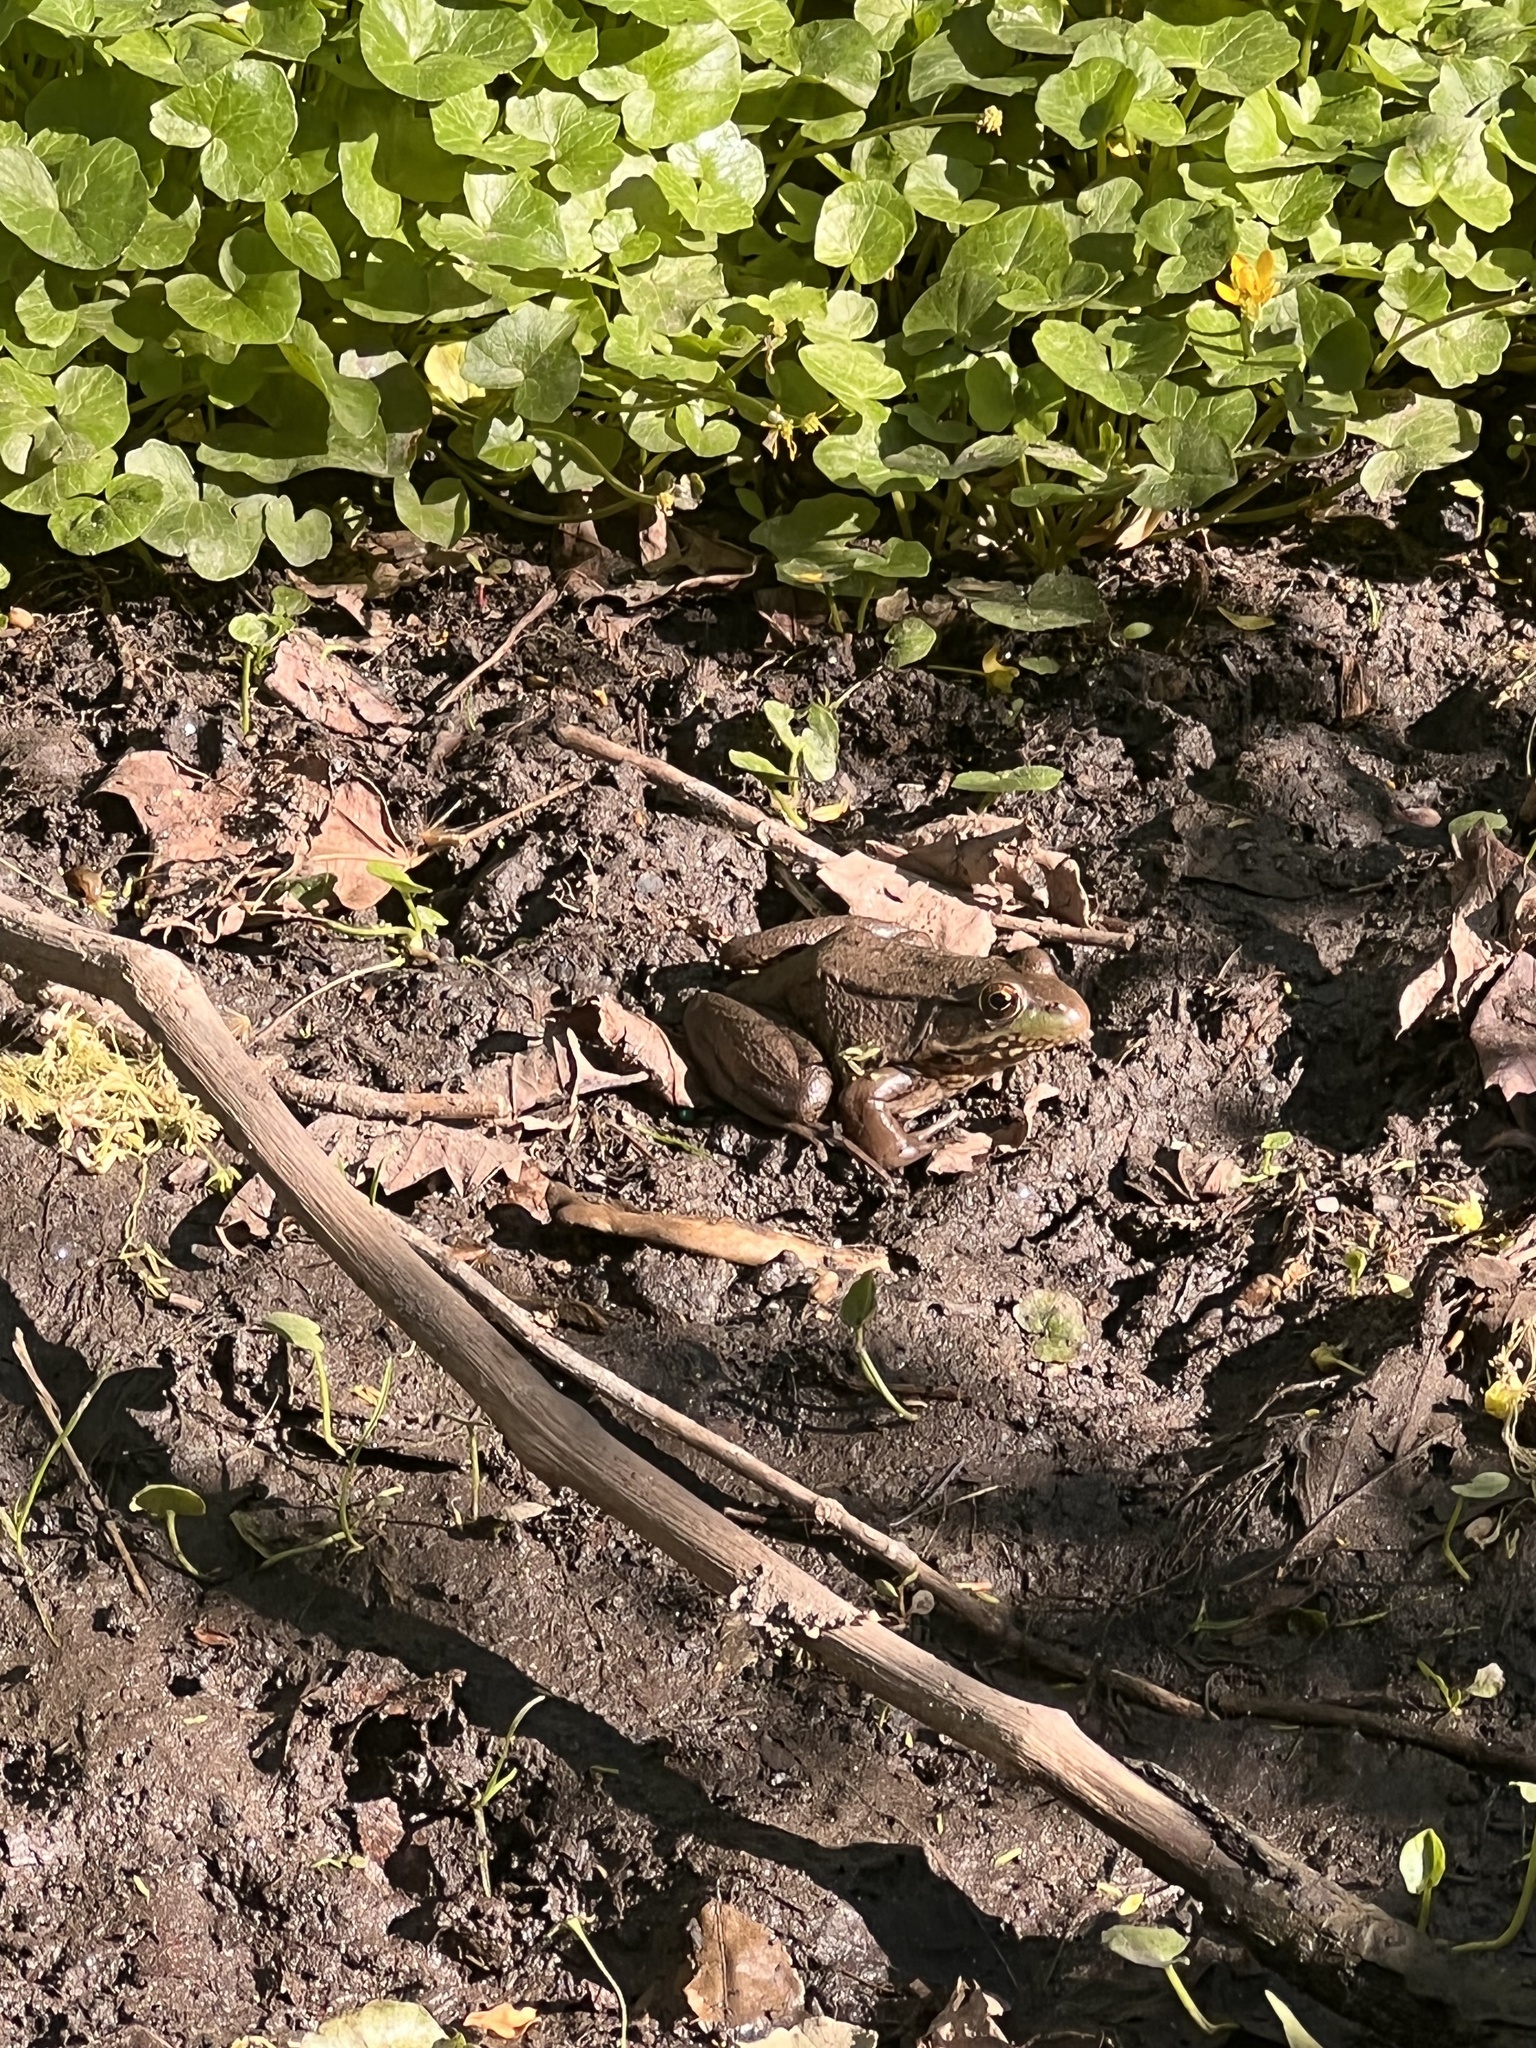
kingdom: Animalia
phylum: Chordata
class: Amphibia
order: Anura
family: Ranidae
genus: Lithobates
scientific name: Lithobates clamitans
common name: Green frog
